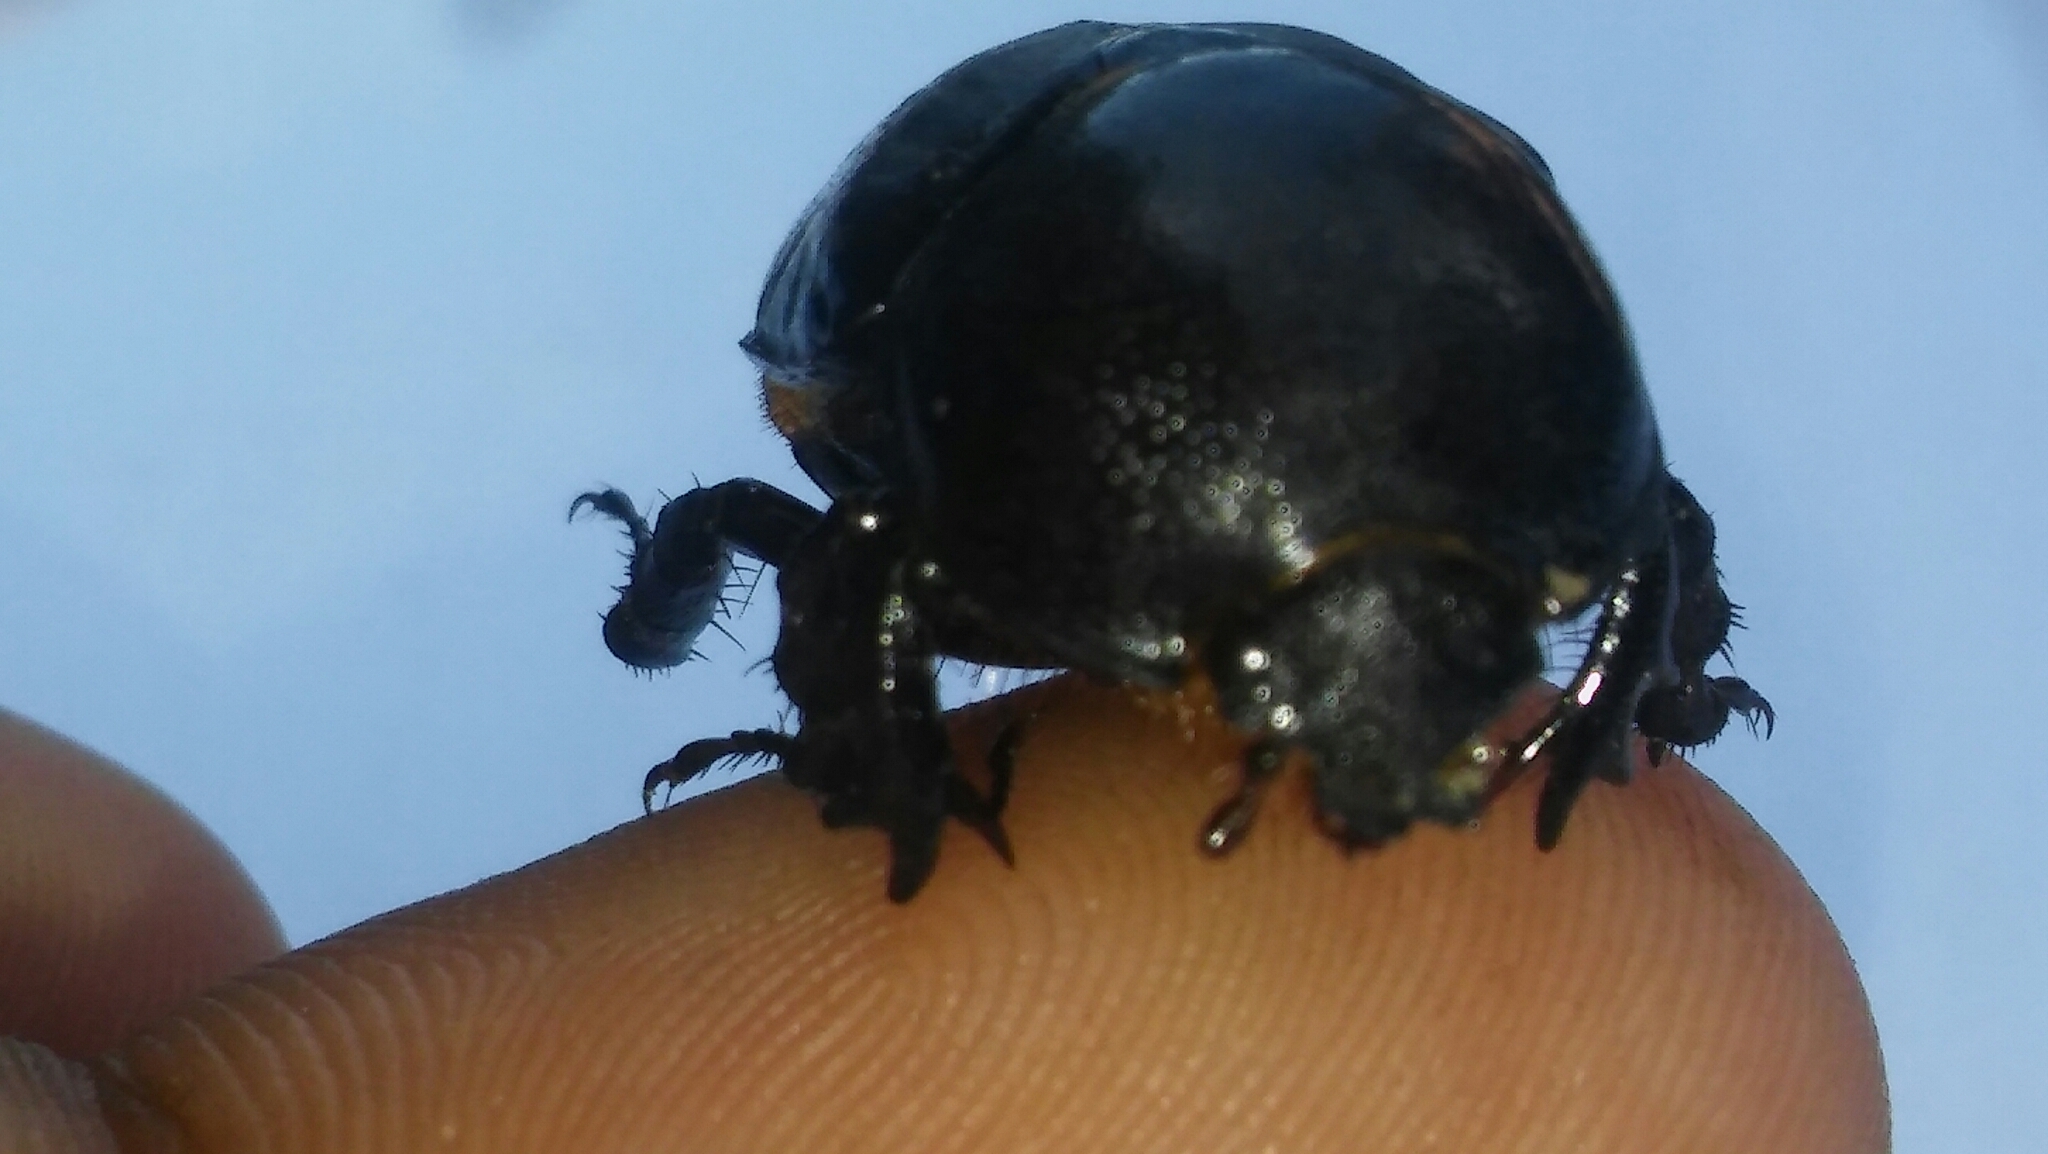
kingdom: Animalia
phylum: Arthropoda
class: Insecta
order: Coleoptera
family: Scarabaeidae
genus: Diloboderus
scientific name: Diloboderus abderus
